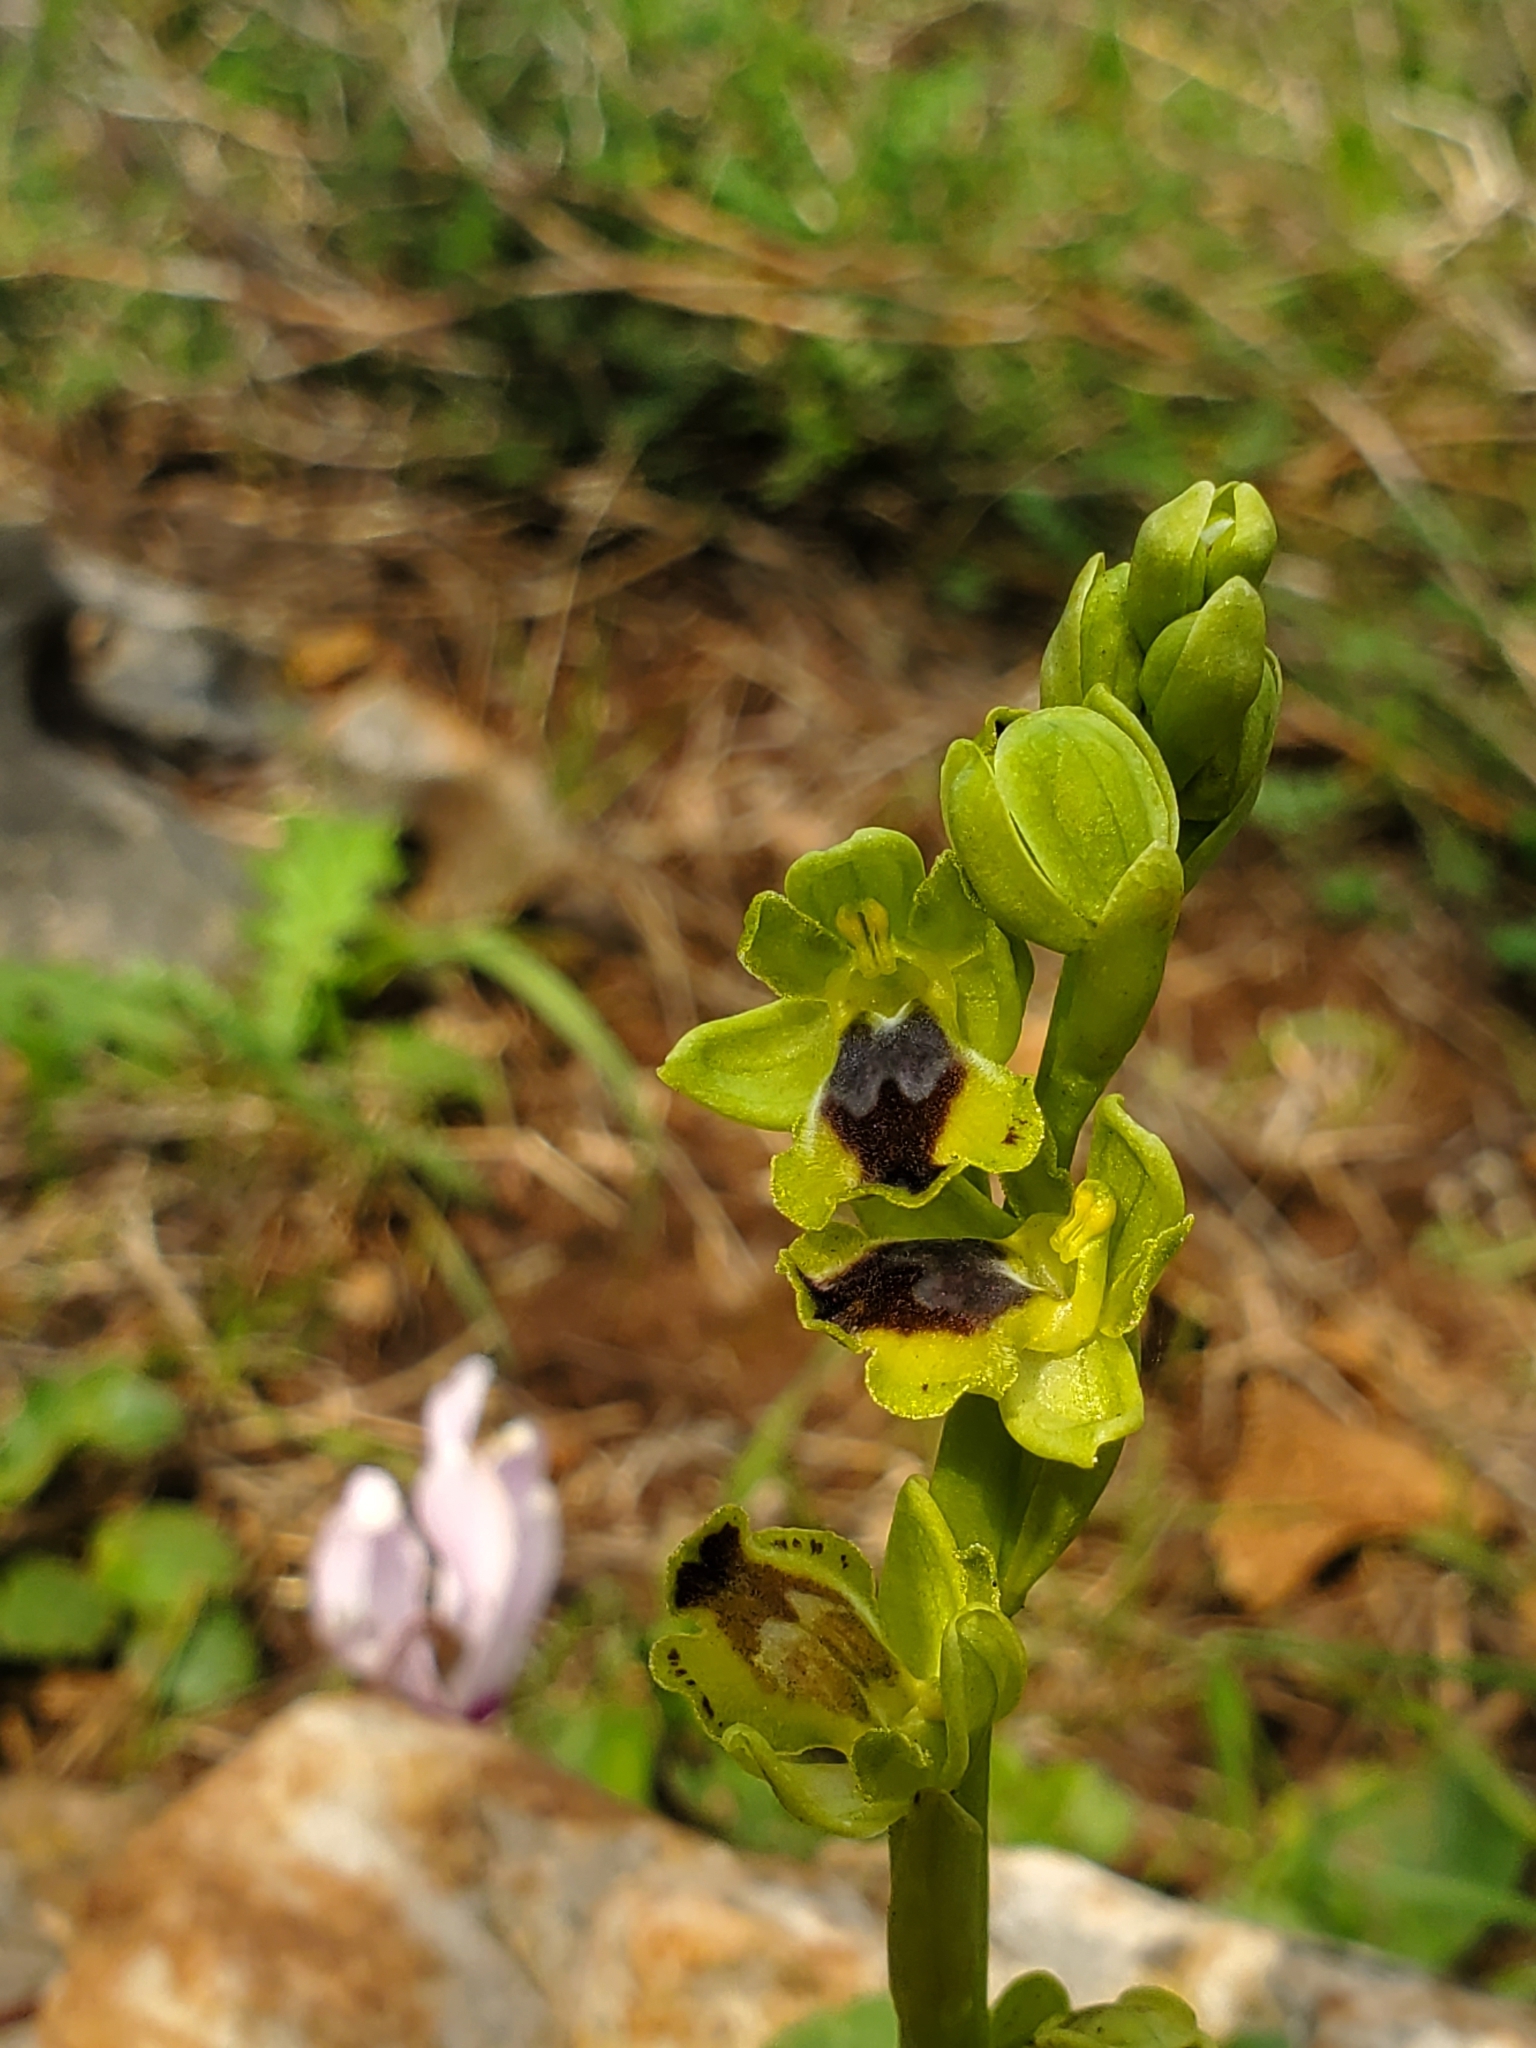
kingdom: Plantae
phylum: Tracheophyta
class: Liliopsida
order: Asparagales
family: Orchidaceae
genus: Ophrys
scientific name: Ophrys lutea
